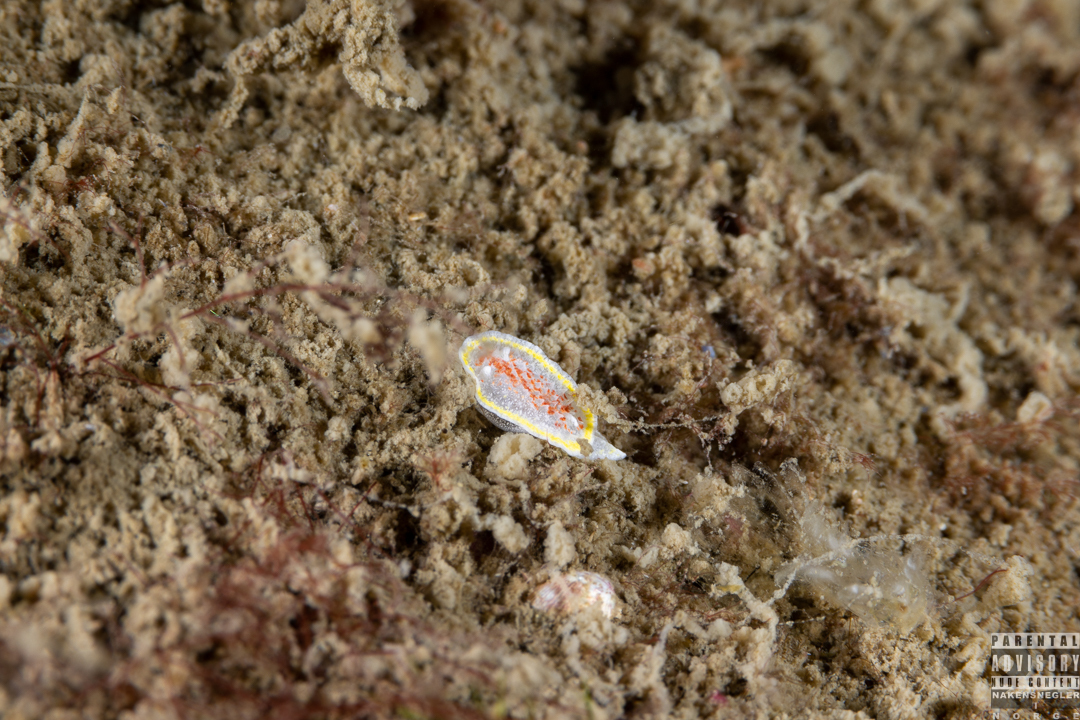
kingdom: Animalia
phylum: Mollusca
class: Gastropoda
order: Nudibranchia
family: Calycidorididae
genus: Diaphorodoris
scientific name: Diaphorodoris luteocincta
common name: Fried egg nudibranch
